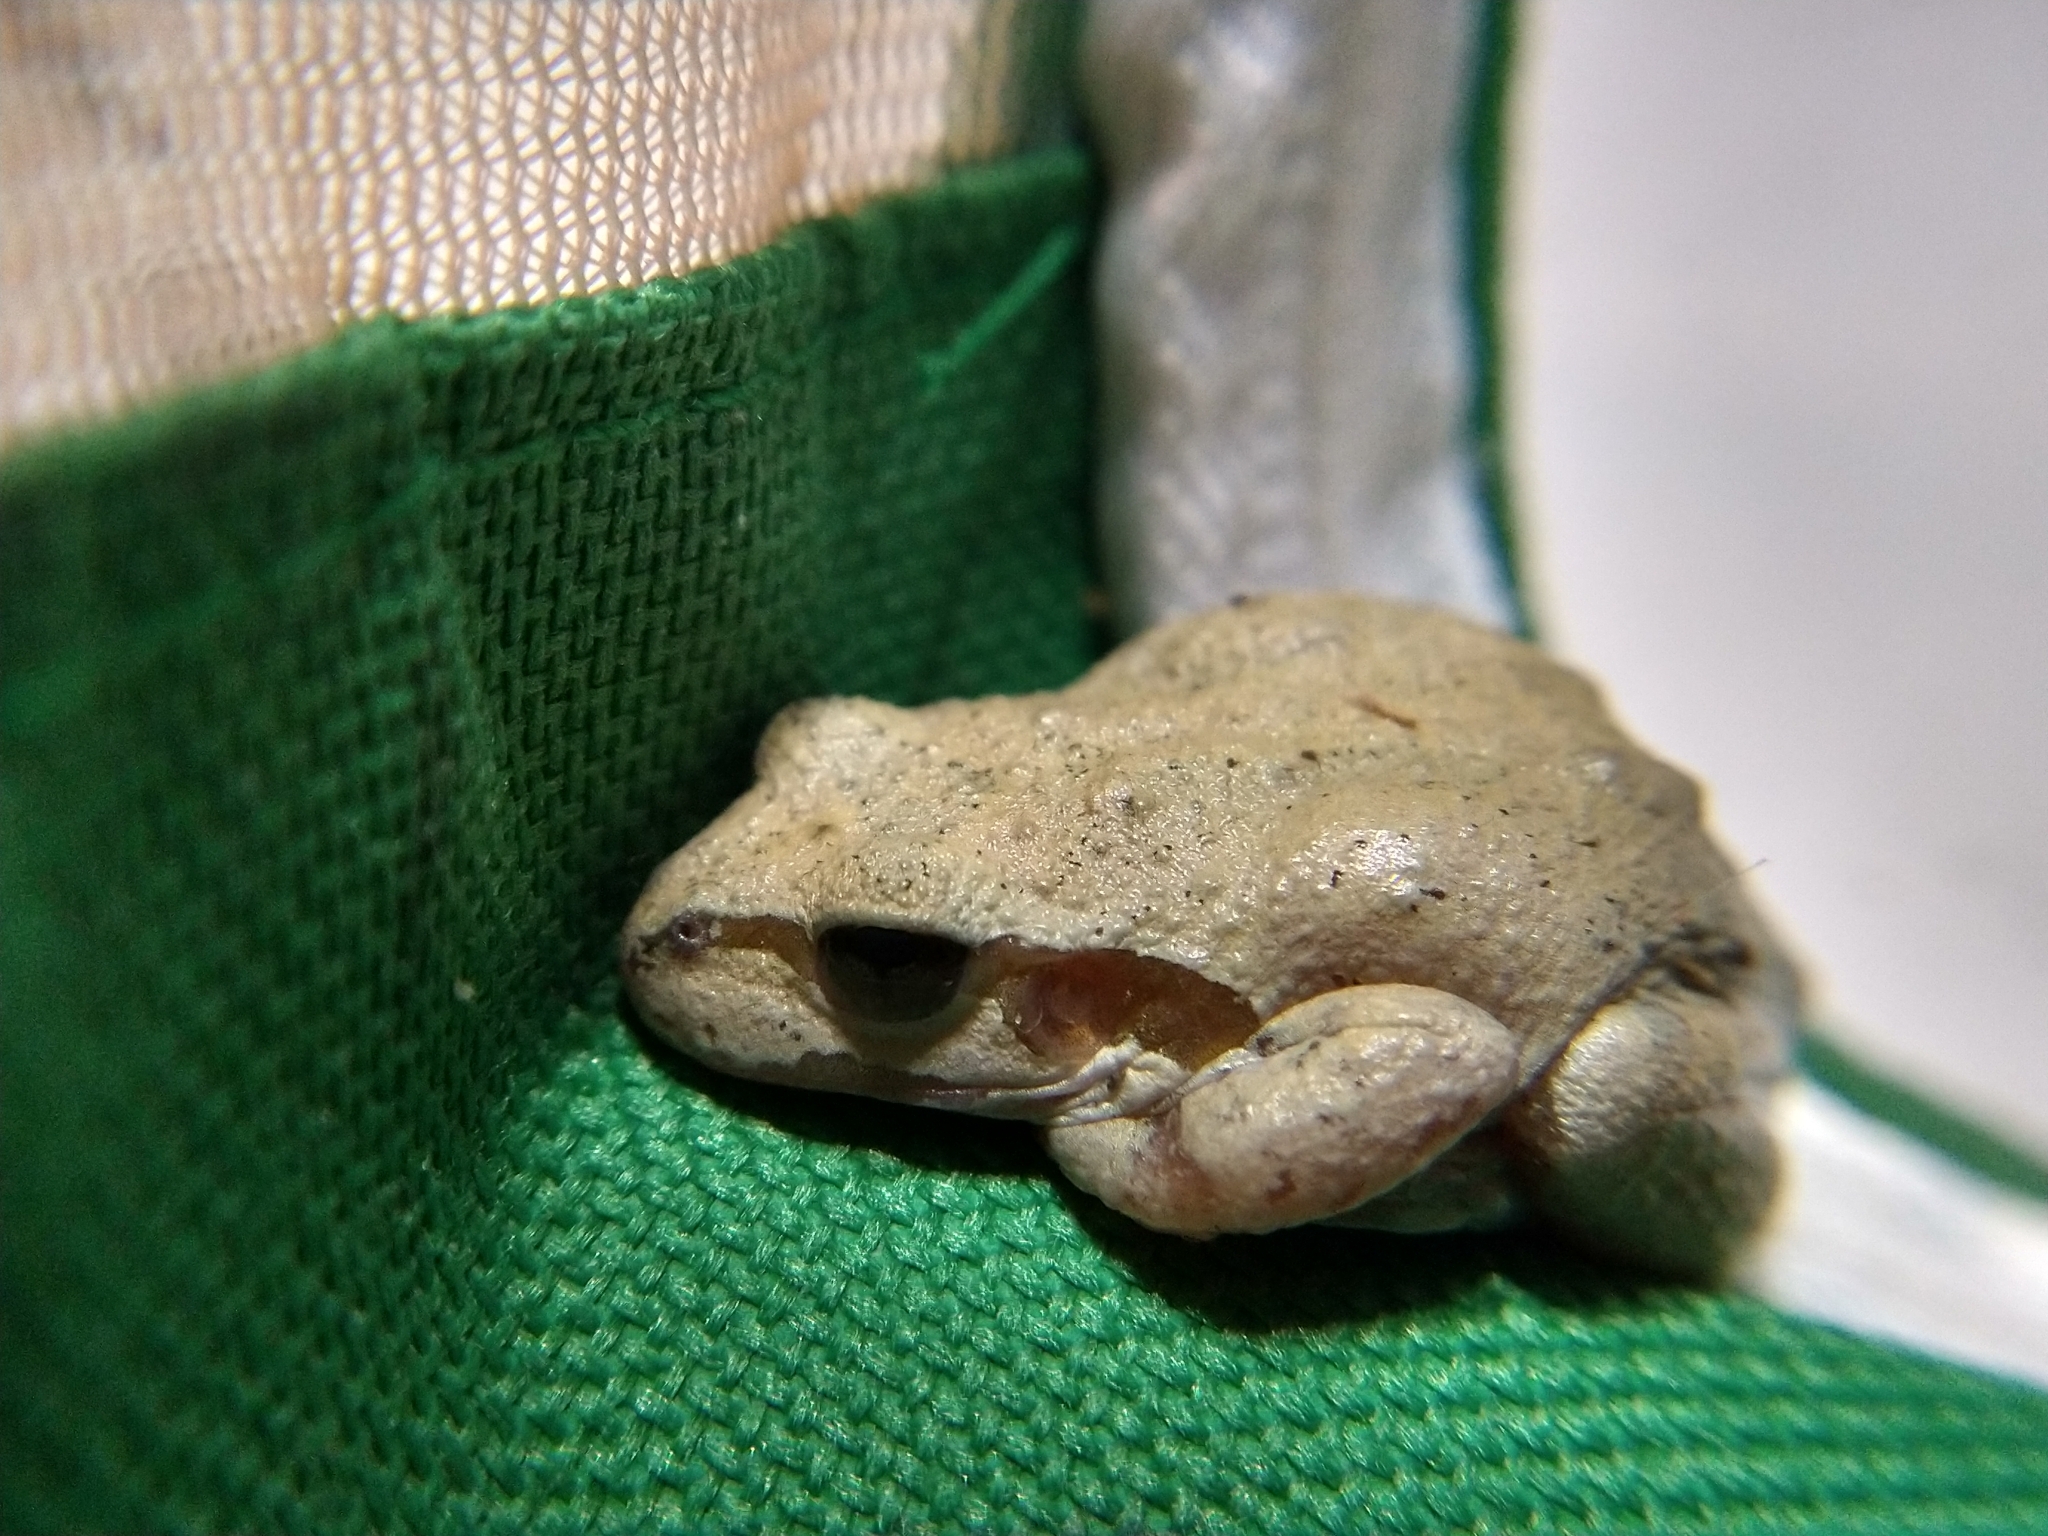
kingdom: Animalia
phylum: Chordata
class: Amphibia
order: Anura
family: Hylidae
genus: Pseudacris
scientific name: Pseudacris regilla
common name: Pacific chorus frog
